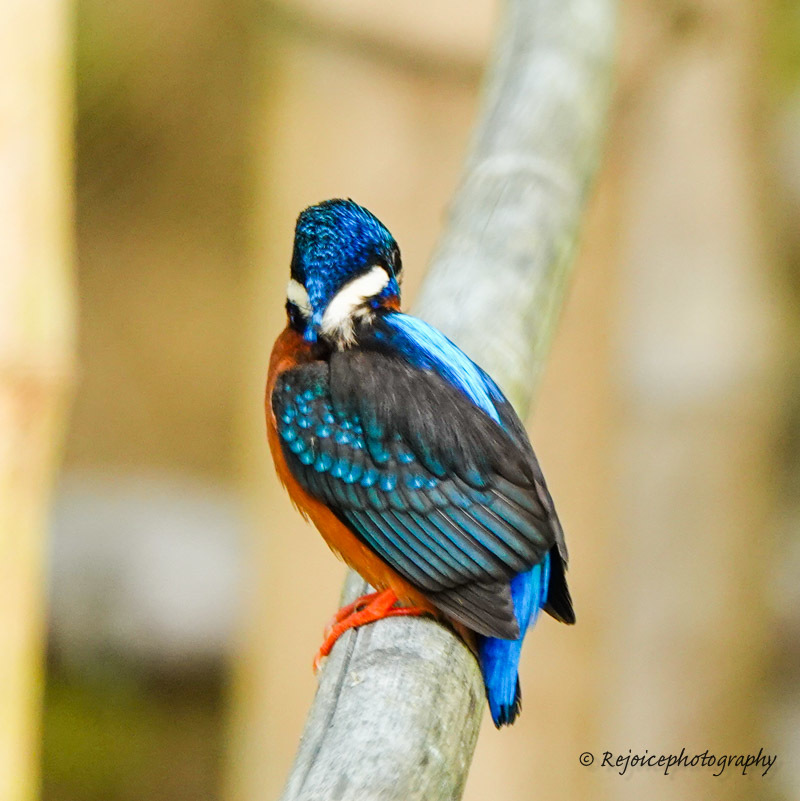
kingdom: Animalia
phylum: Chordata
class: Aves
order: Coraciiformes
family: Alcedinidae
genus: Alcedo
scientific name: Alcedo meninting
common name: Blue-eared kingfisher
